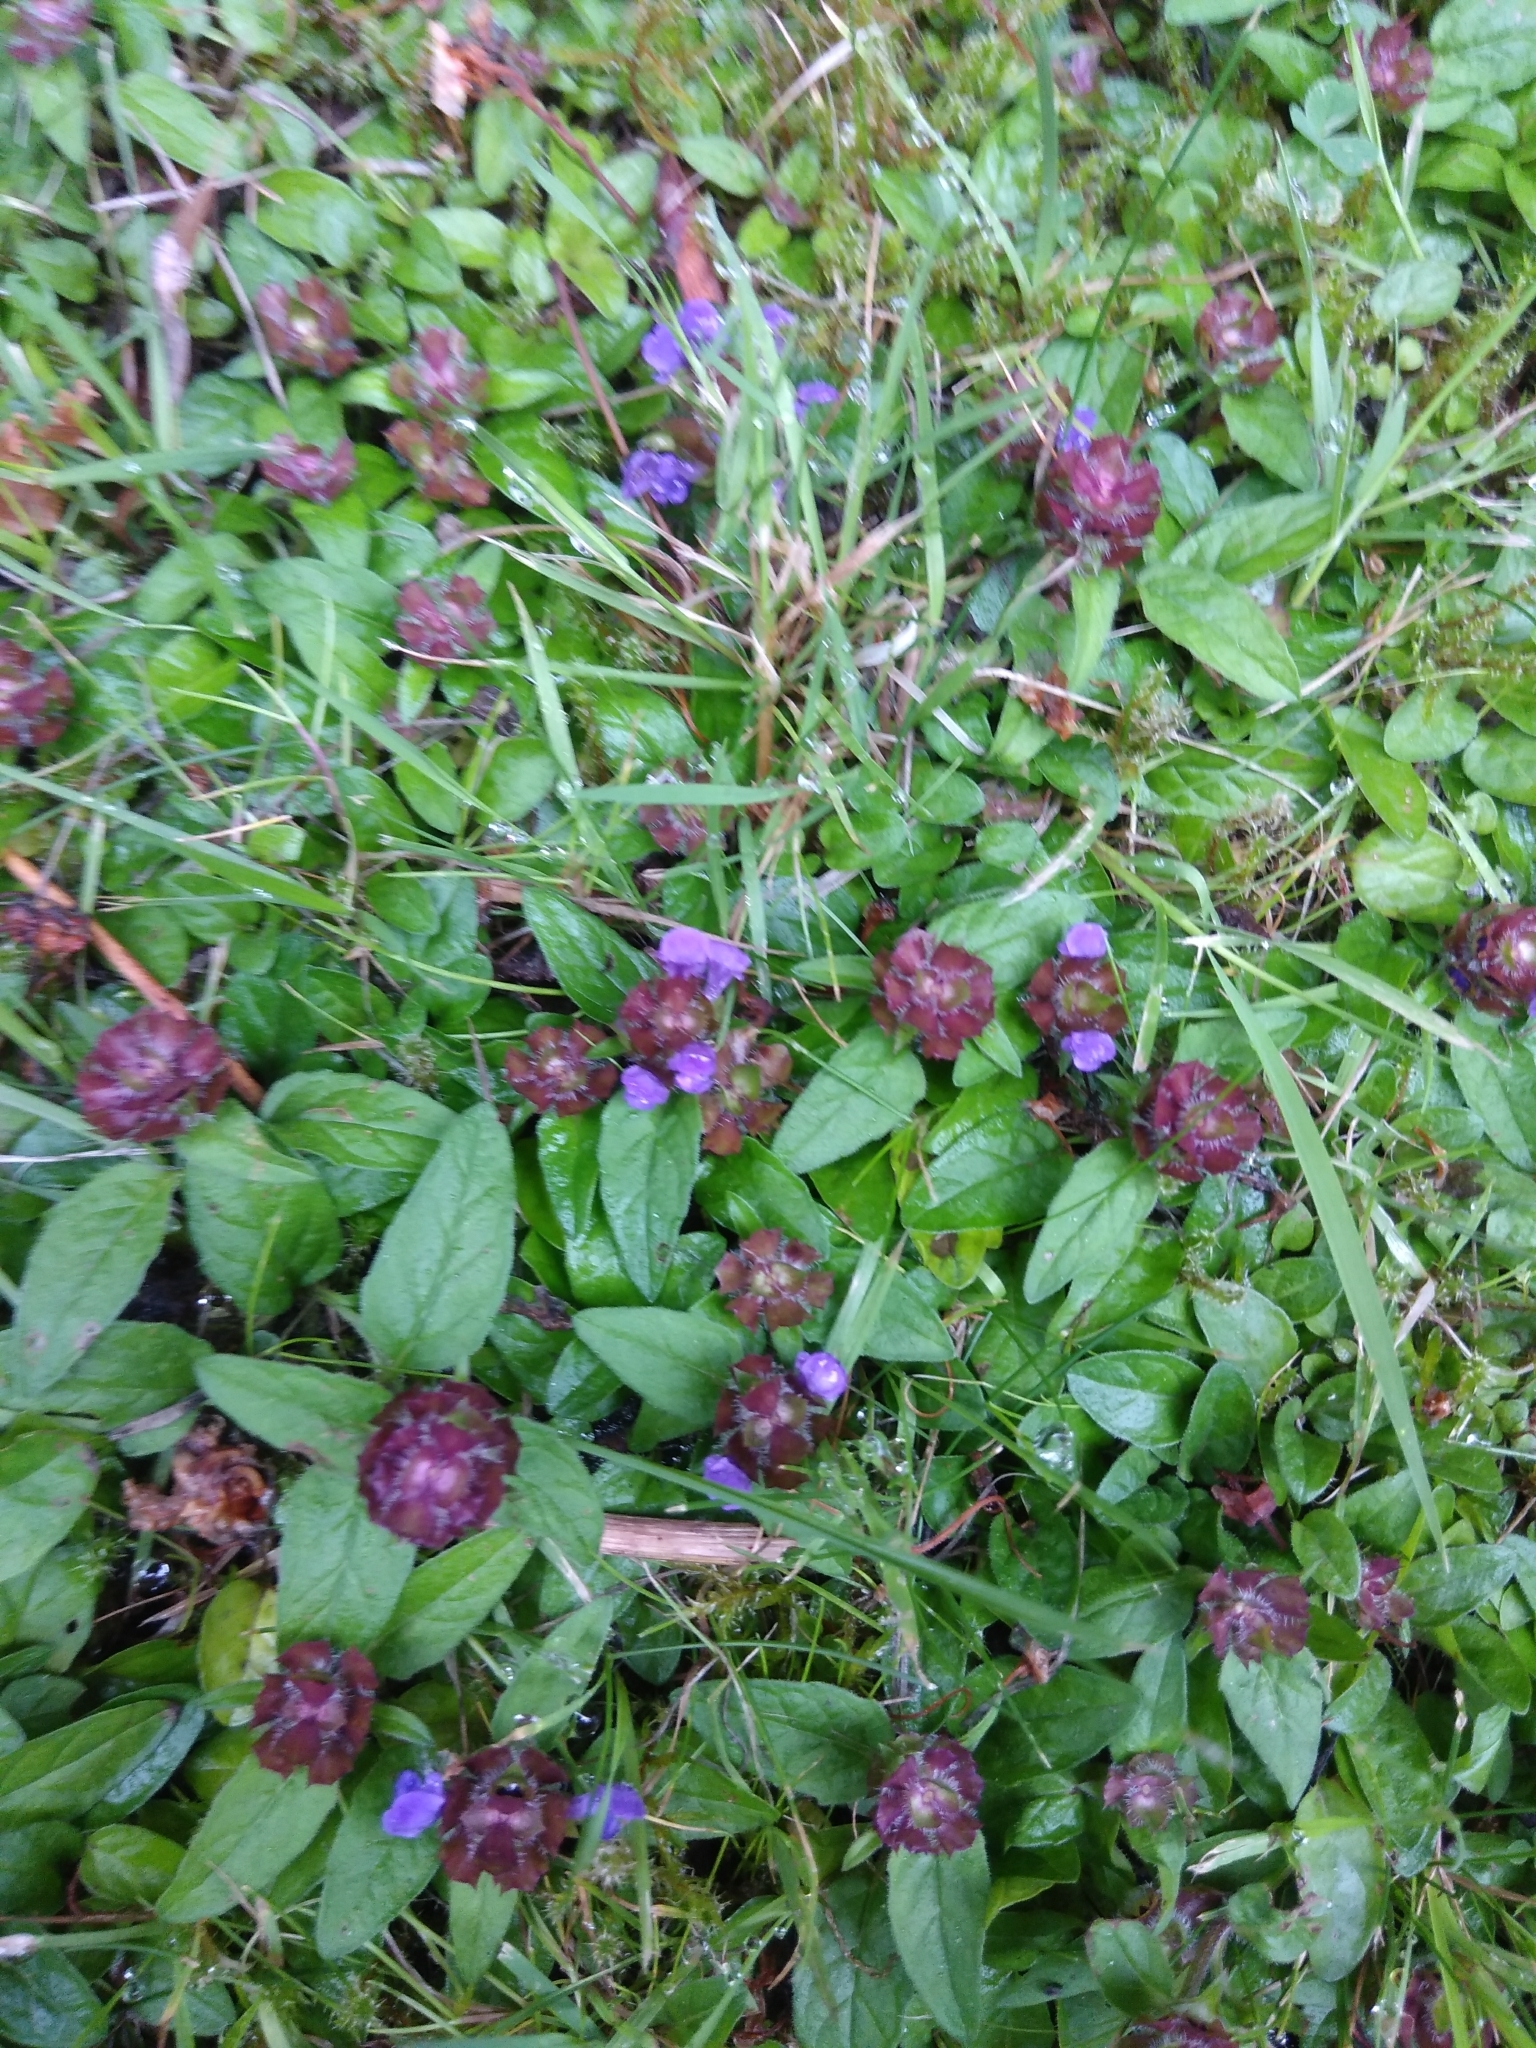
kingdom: Plantae
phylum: Tracheophyta
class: Magnoliopsida
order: Lamiales
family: Lamiaceae
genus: Prunella
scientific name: Prunella vulgaris
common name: Heal-all
